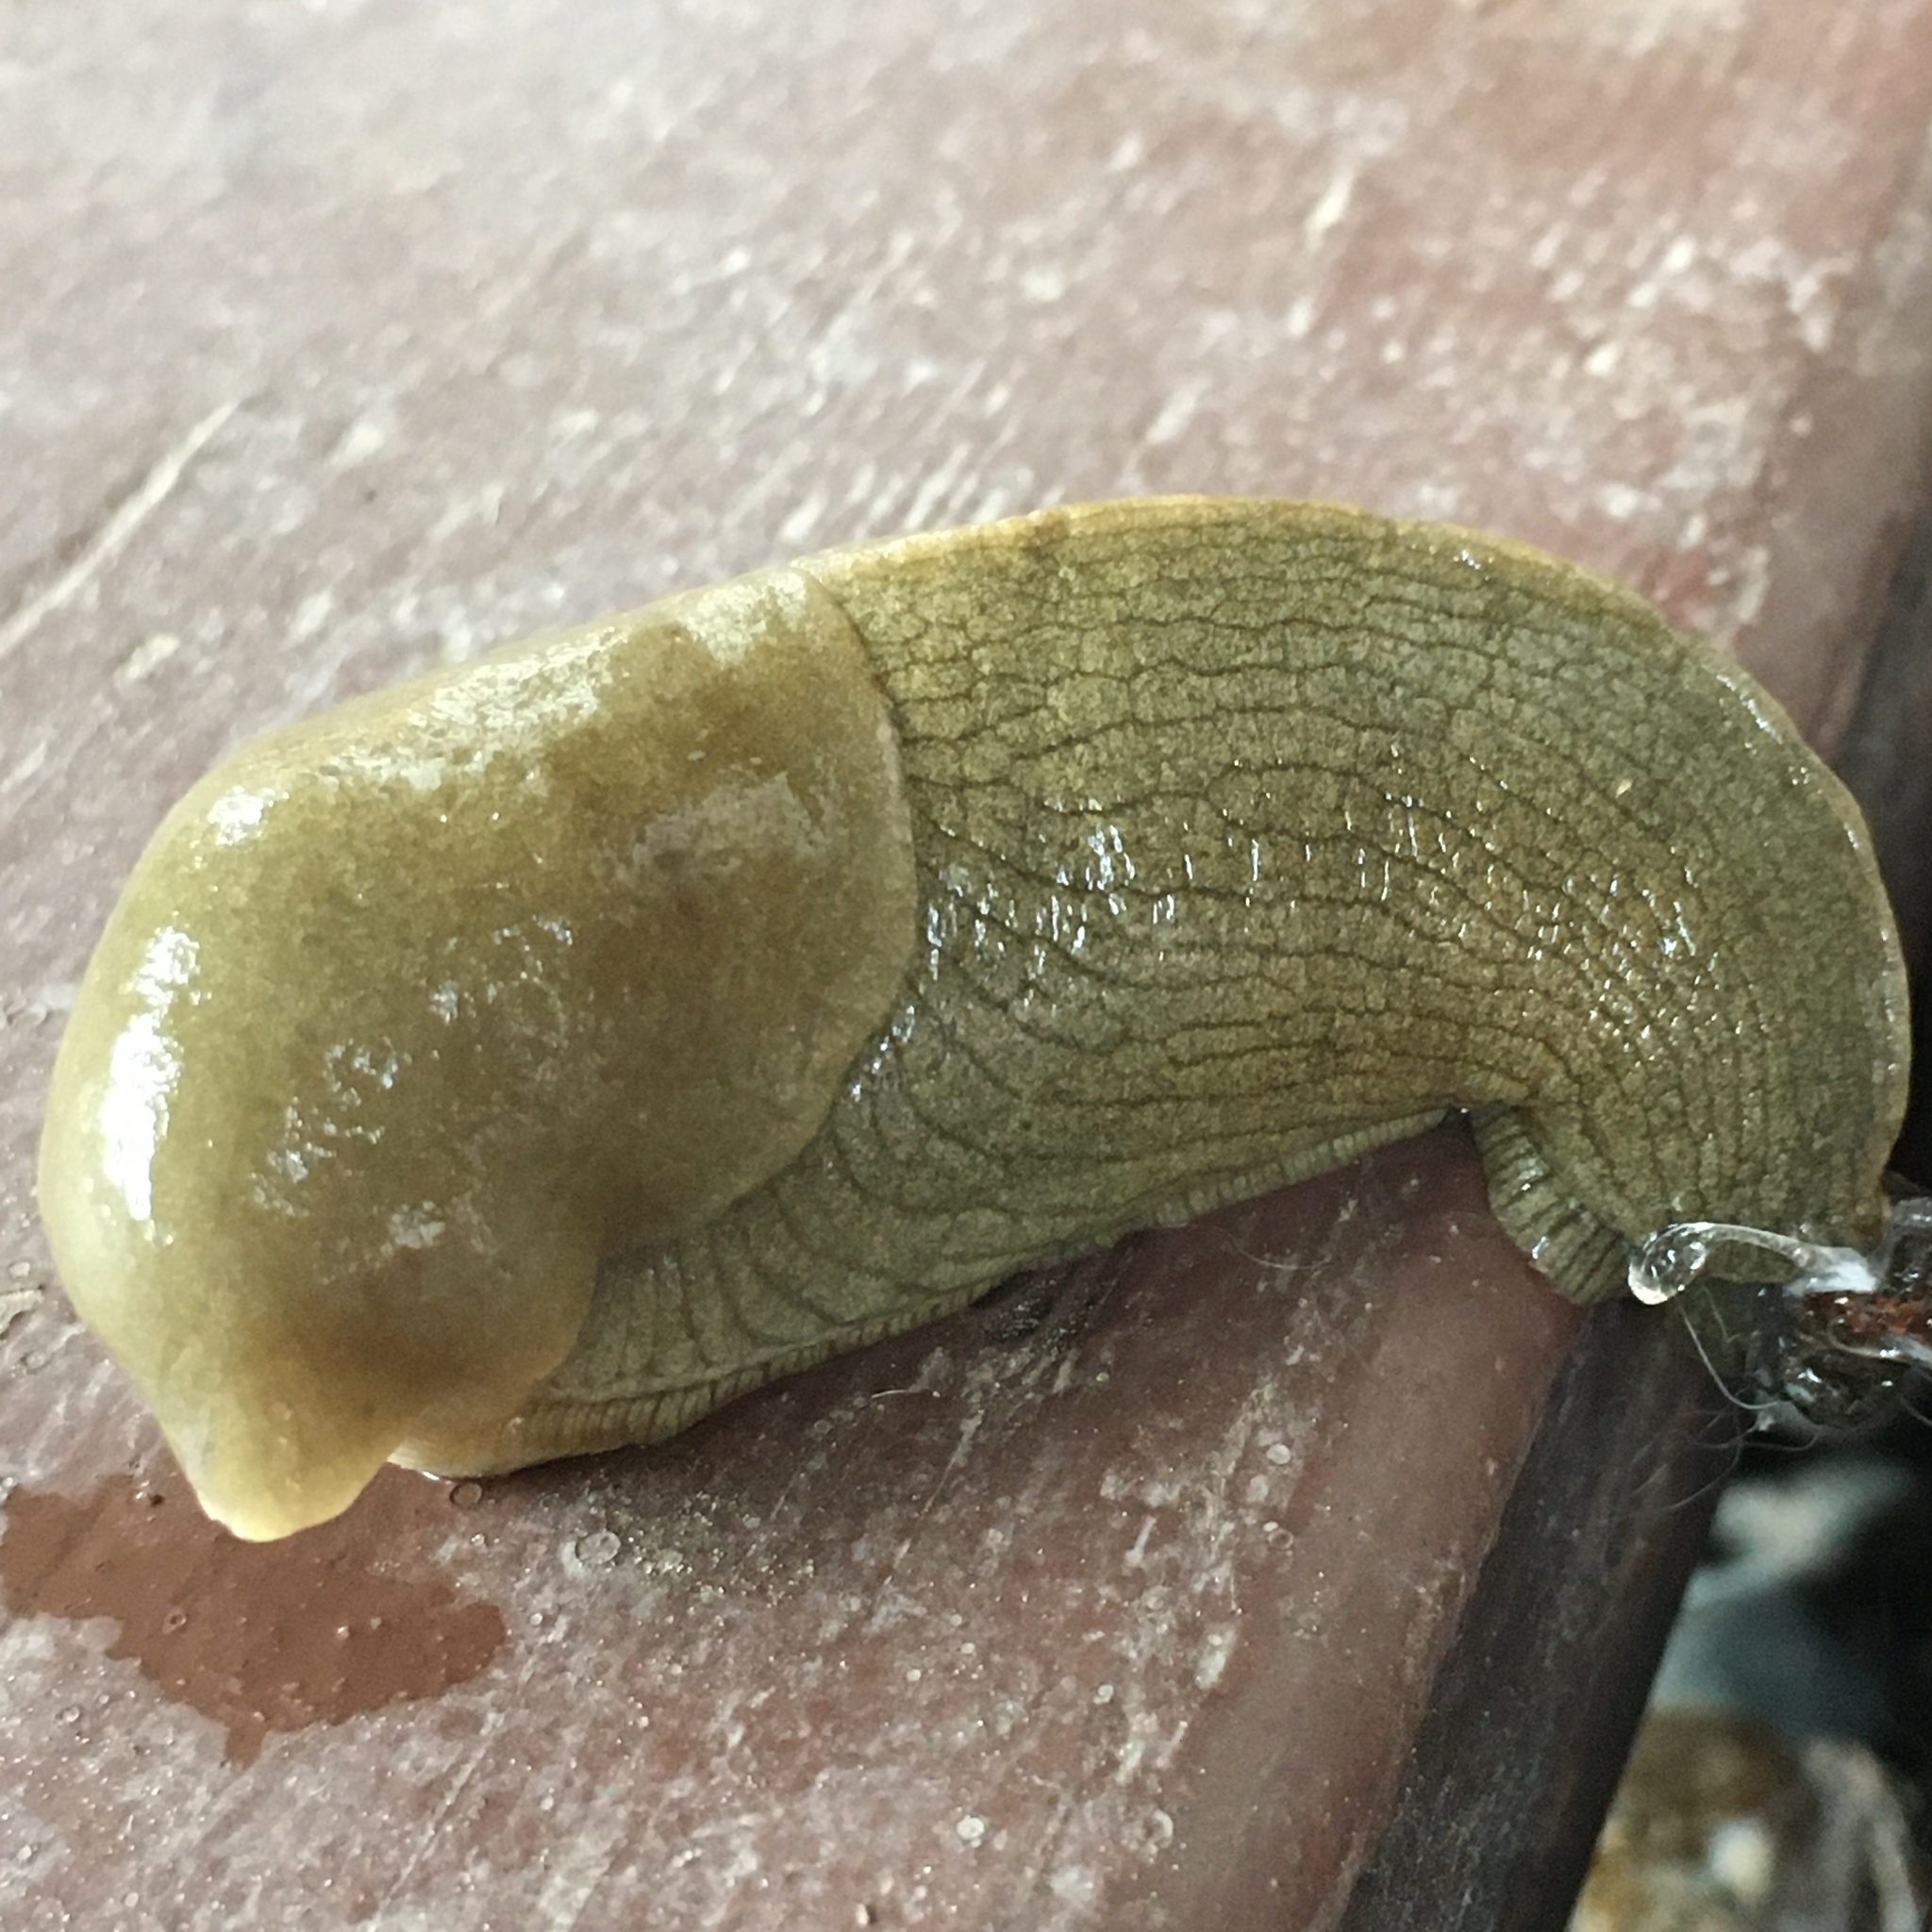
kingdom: Animalia
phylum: Mollusca
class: Gastropoda
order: Stylommatophora
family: Ariolimacidae
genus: Ariolimax
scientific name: Ariolimax columbianus
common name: Pacific banana slug
